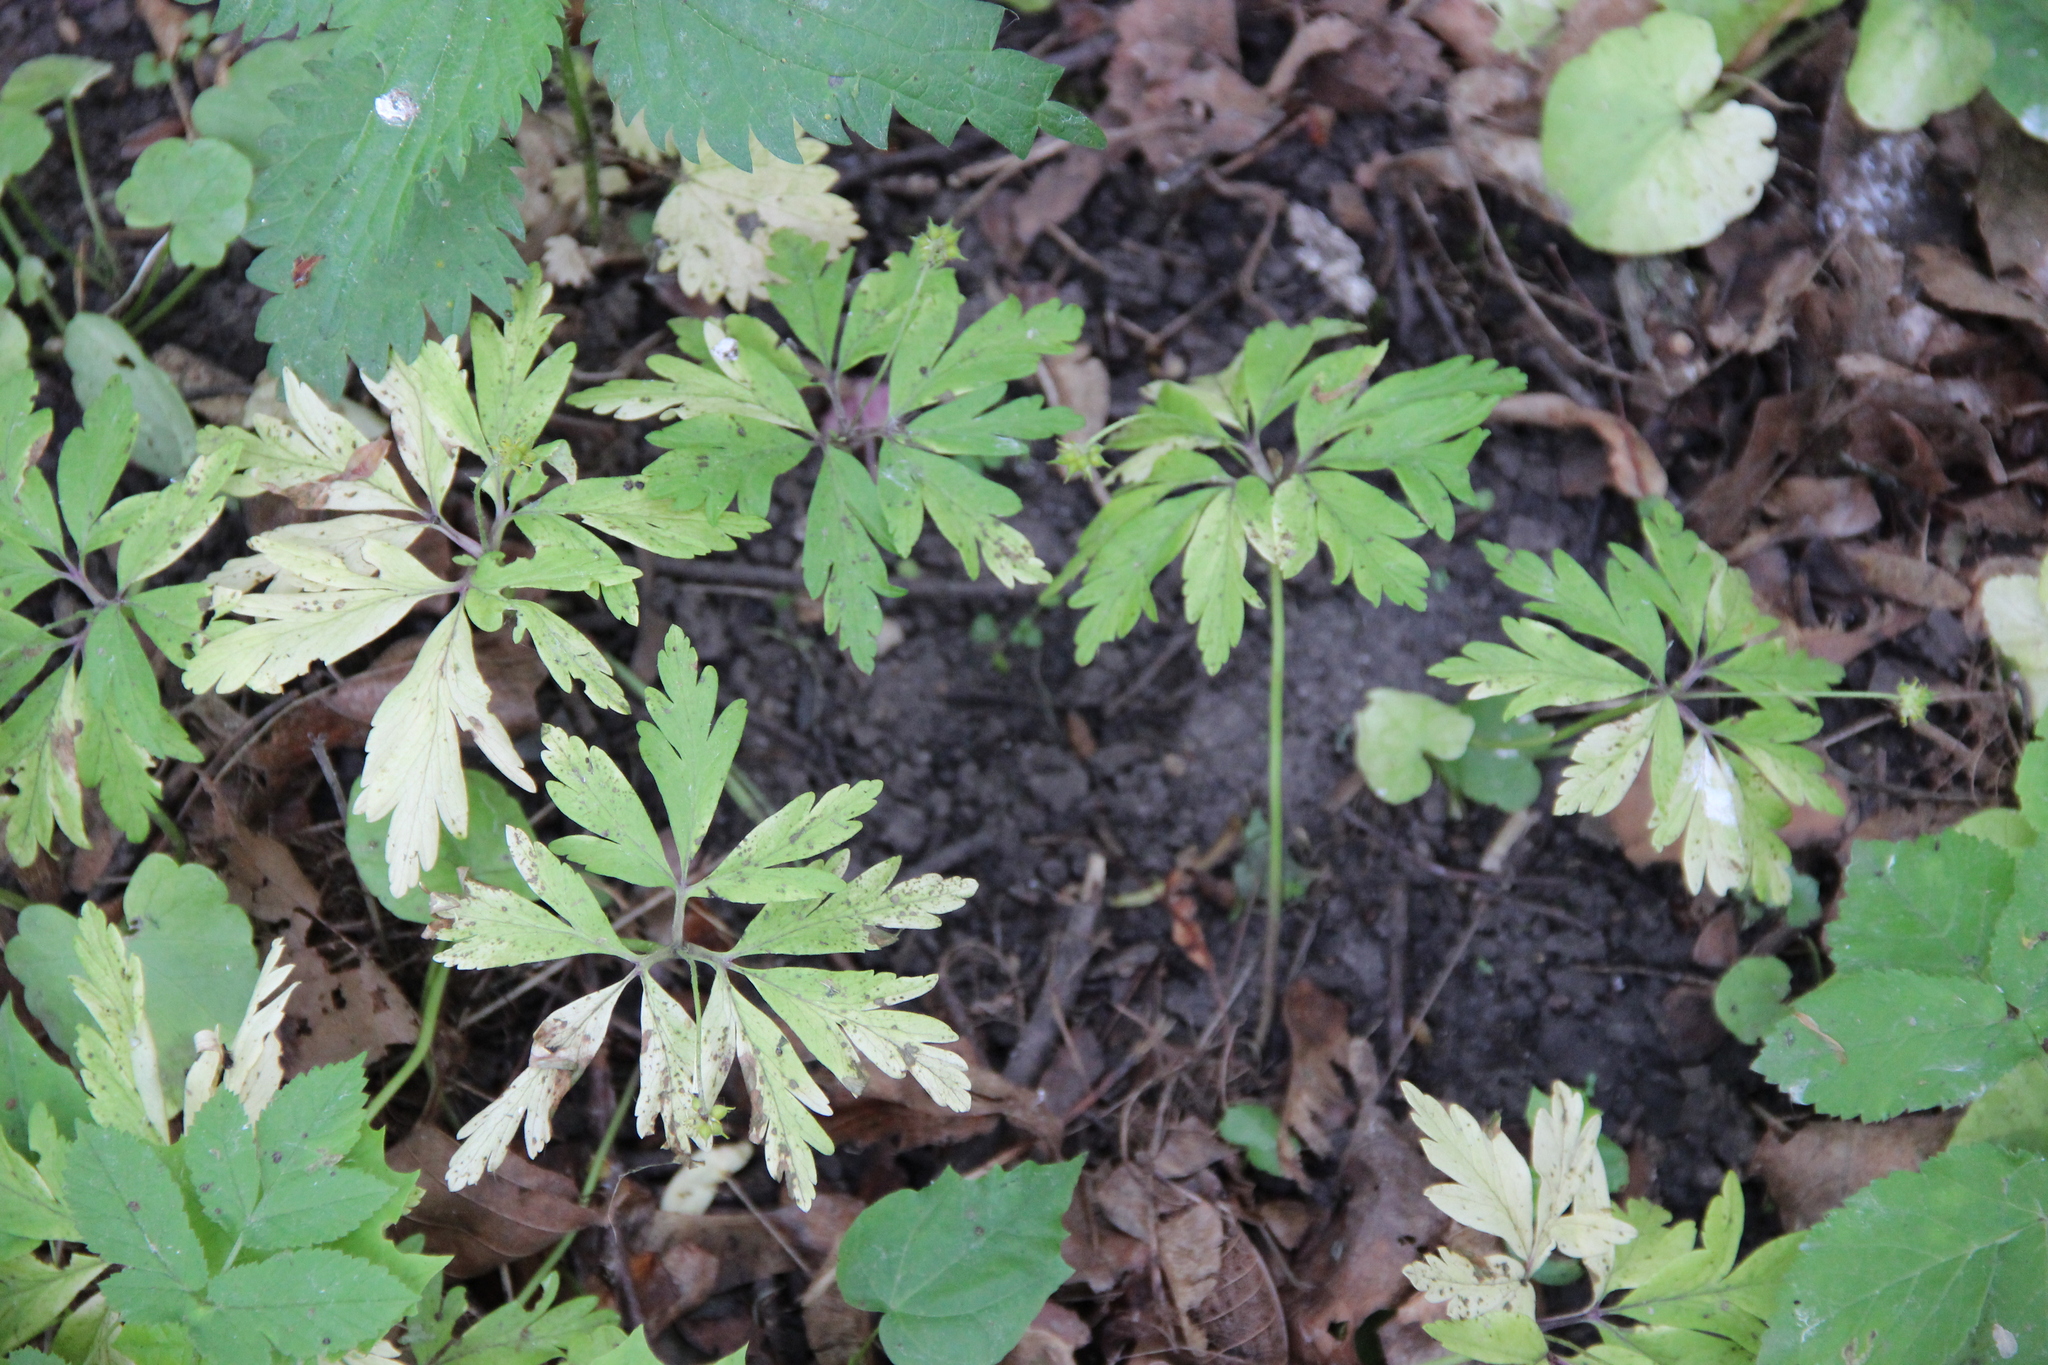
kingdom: Plantae
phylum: Tracheophyta
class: Magnoliopsida
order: Ranunculales
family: Ranunculaceae
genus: Anemone
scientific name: Anemone ranunculoides
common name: Yellow anemone
